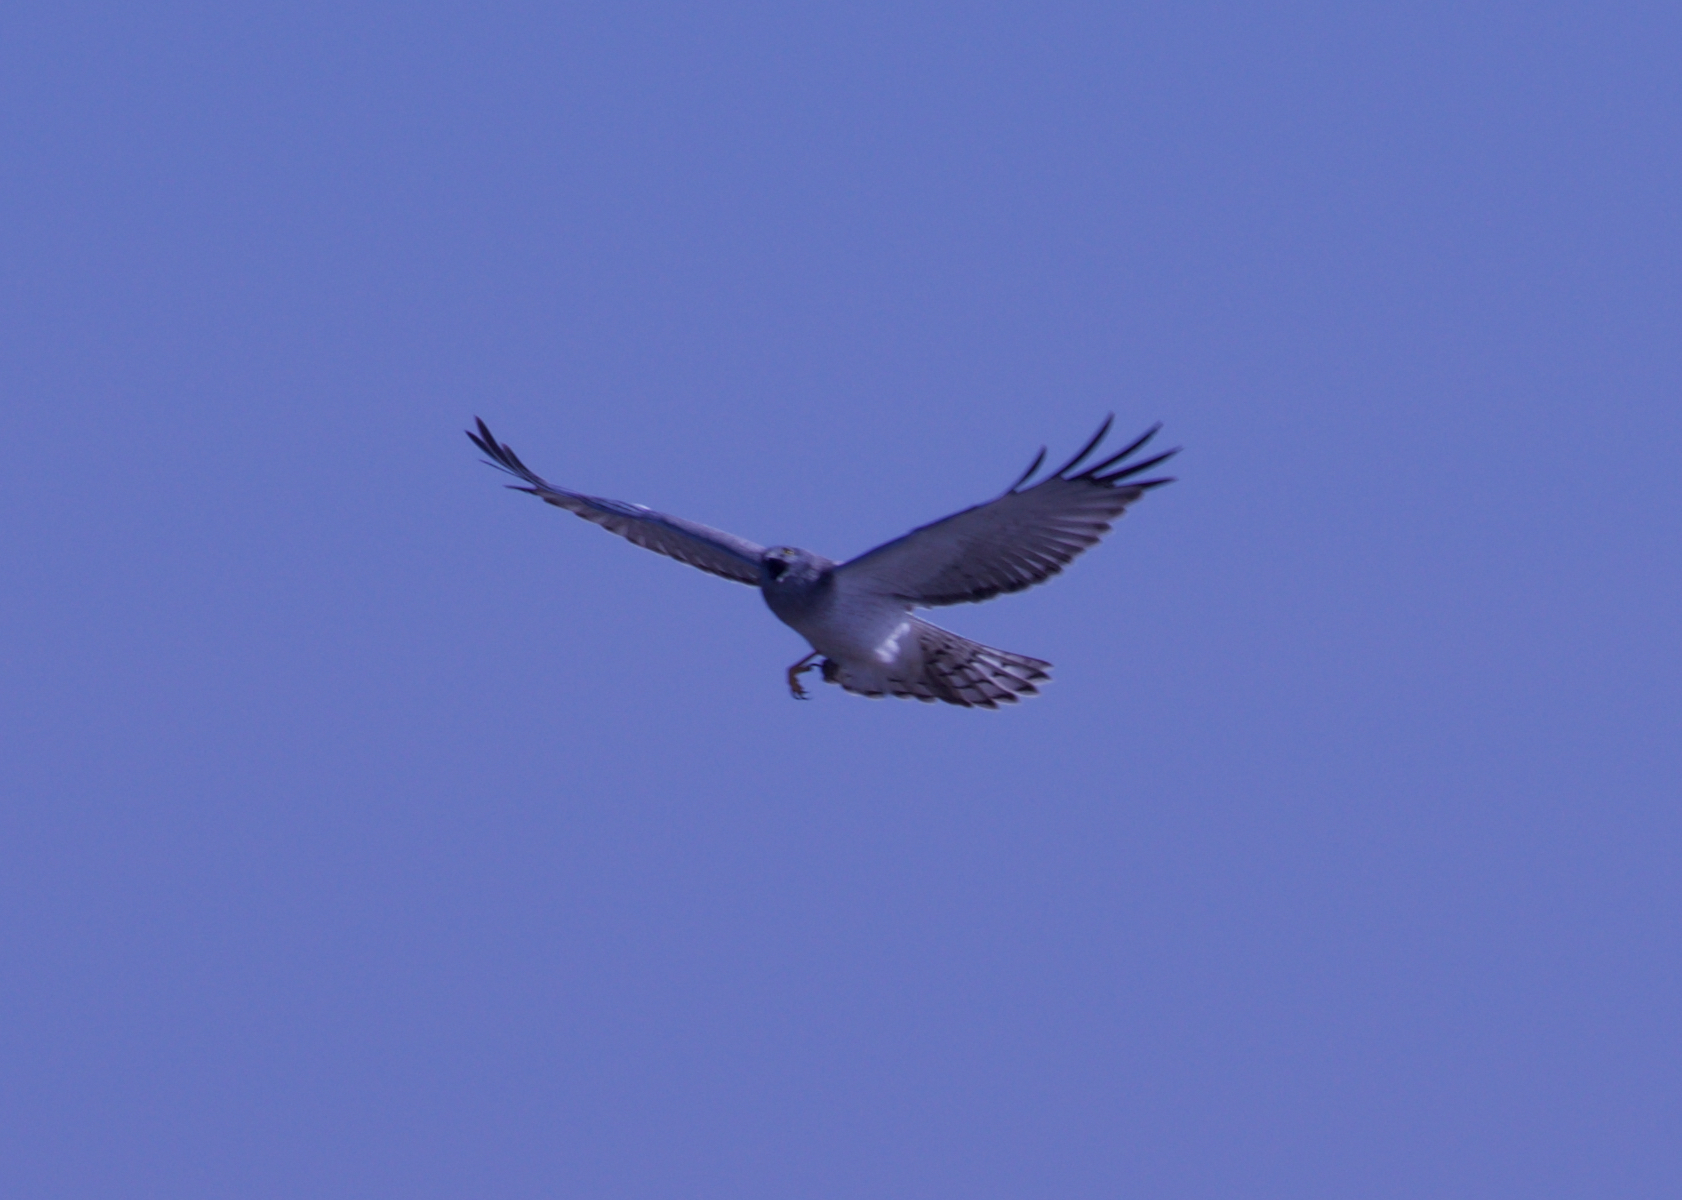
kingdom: Animalia
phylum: Chordata
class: Aves
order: Accipitriformes
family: Accipitridae
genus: Circus
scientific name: Circus cyaneus
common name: Hen harrier
